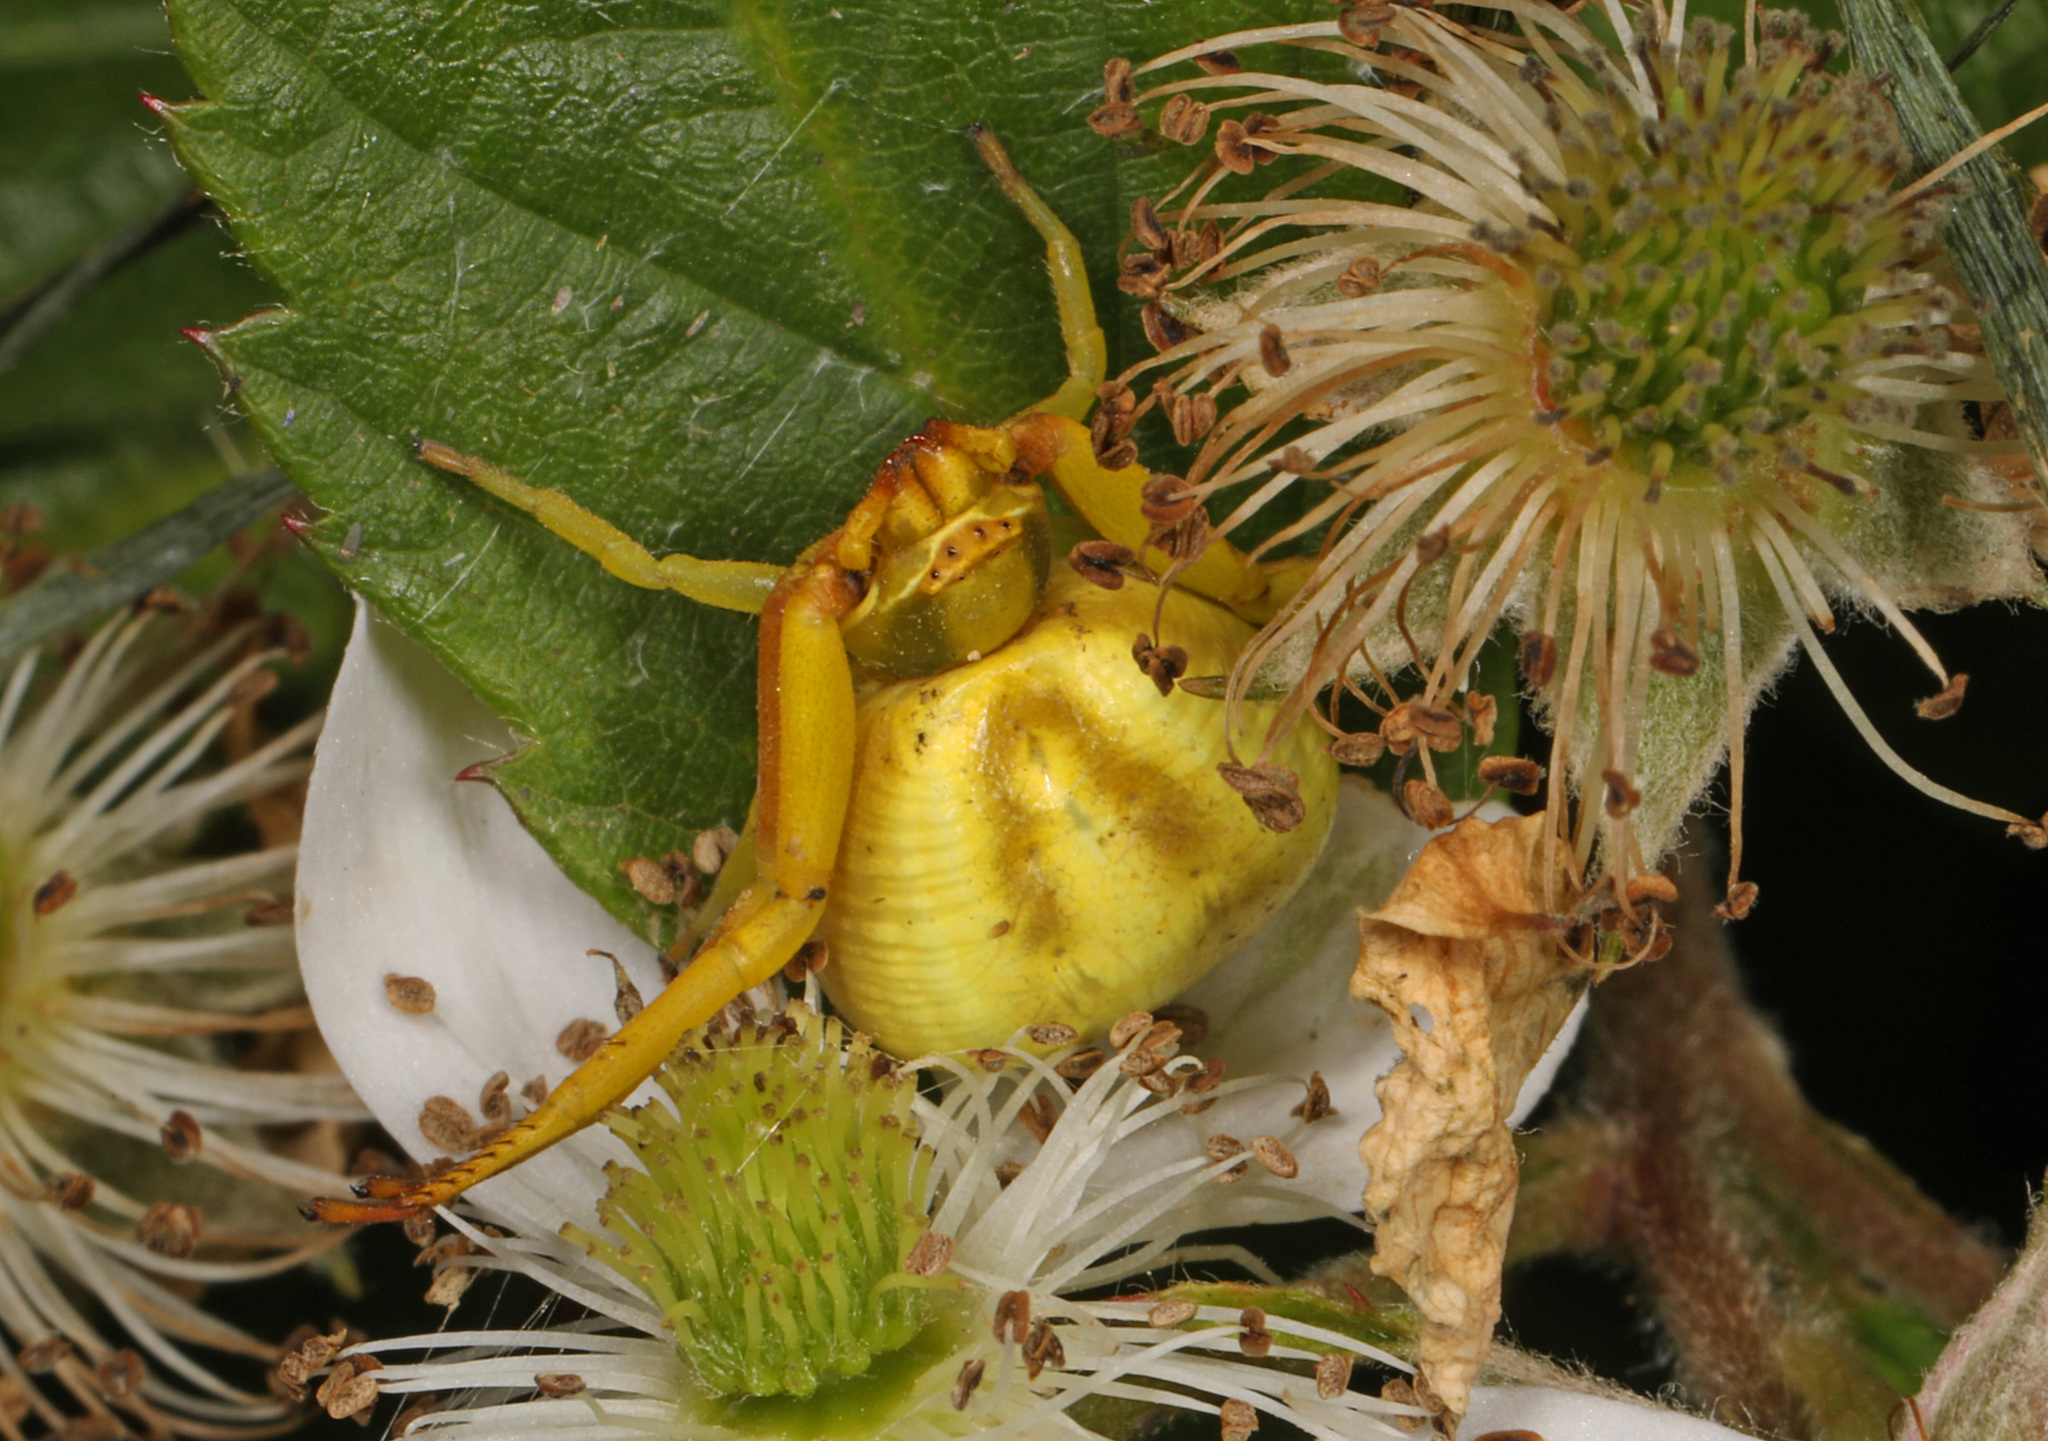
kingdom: Animalia
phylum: Arthropoda
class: Arachnida
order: Araneae
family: Thomisidae
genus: Misumenoides
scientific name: Misumenoides formosipes
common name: White-banded crab spider
